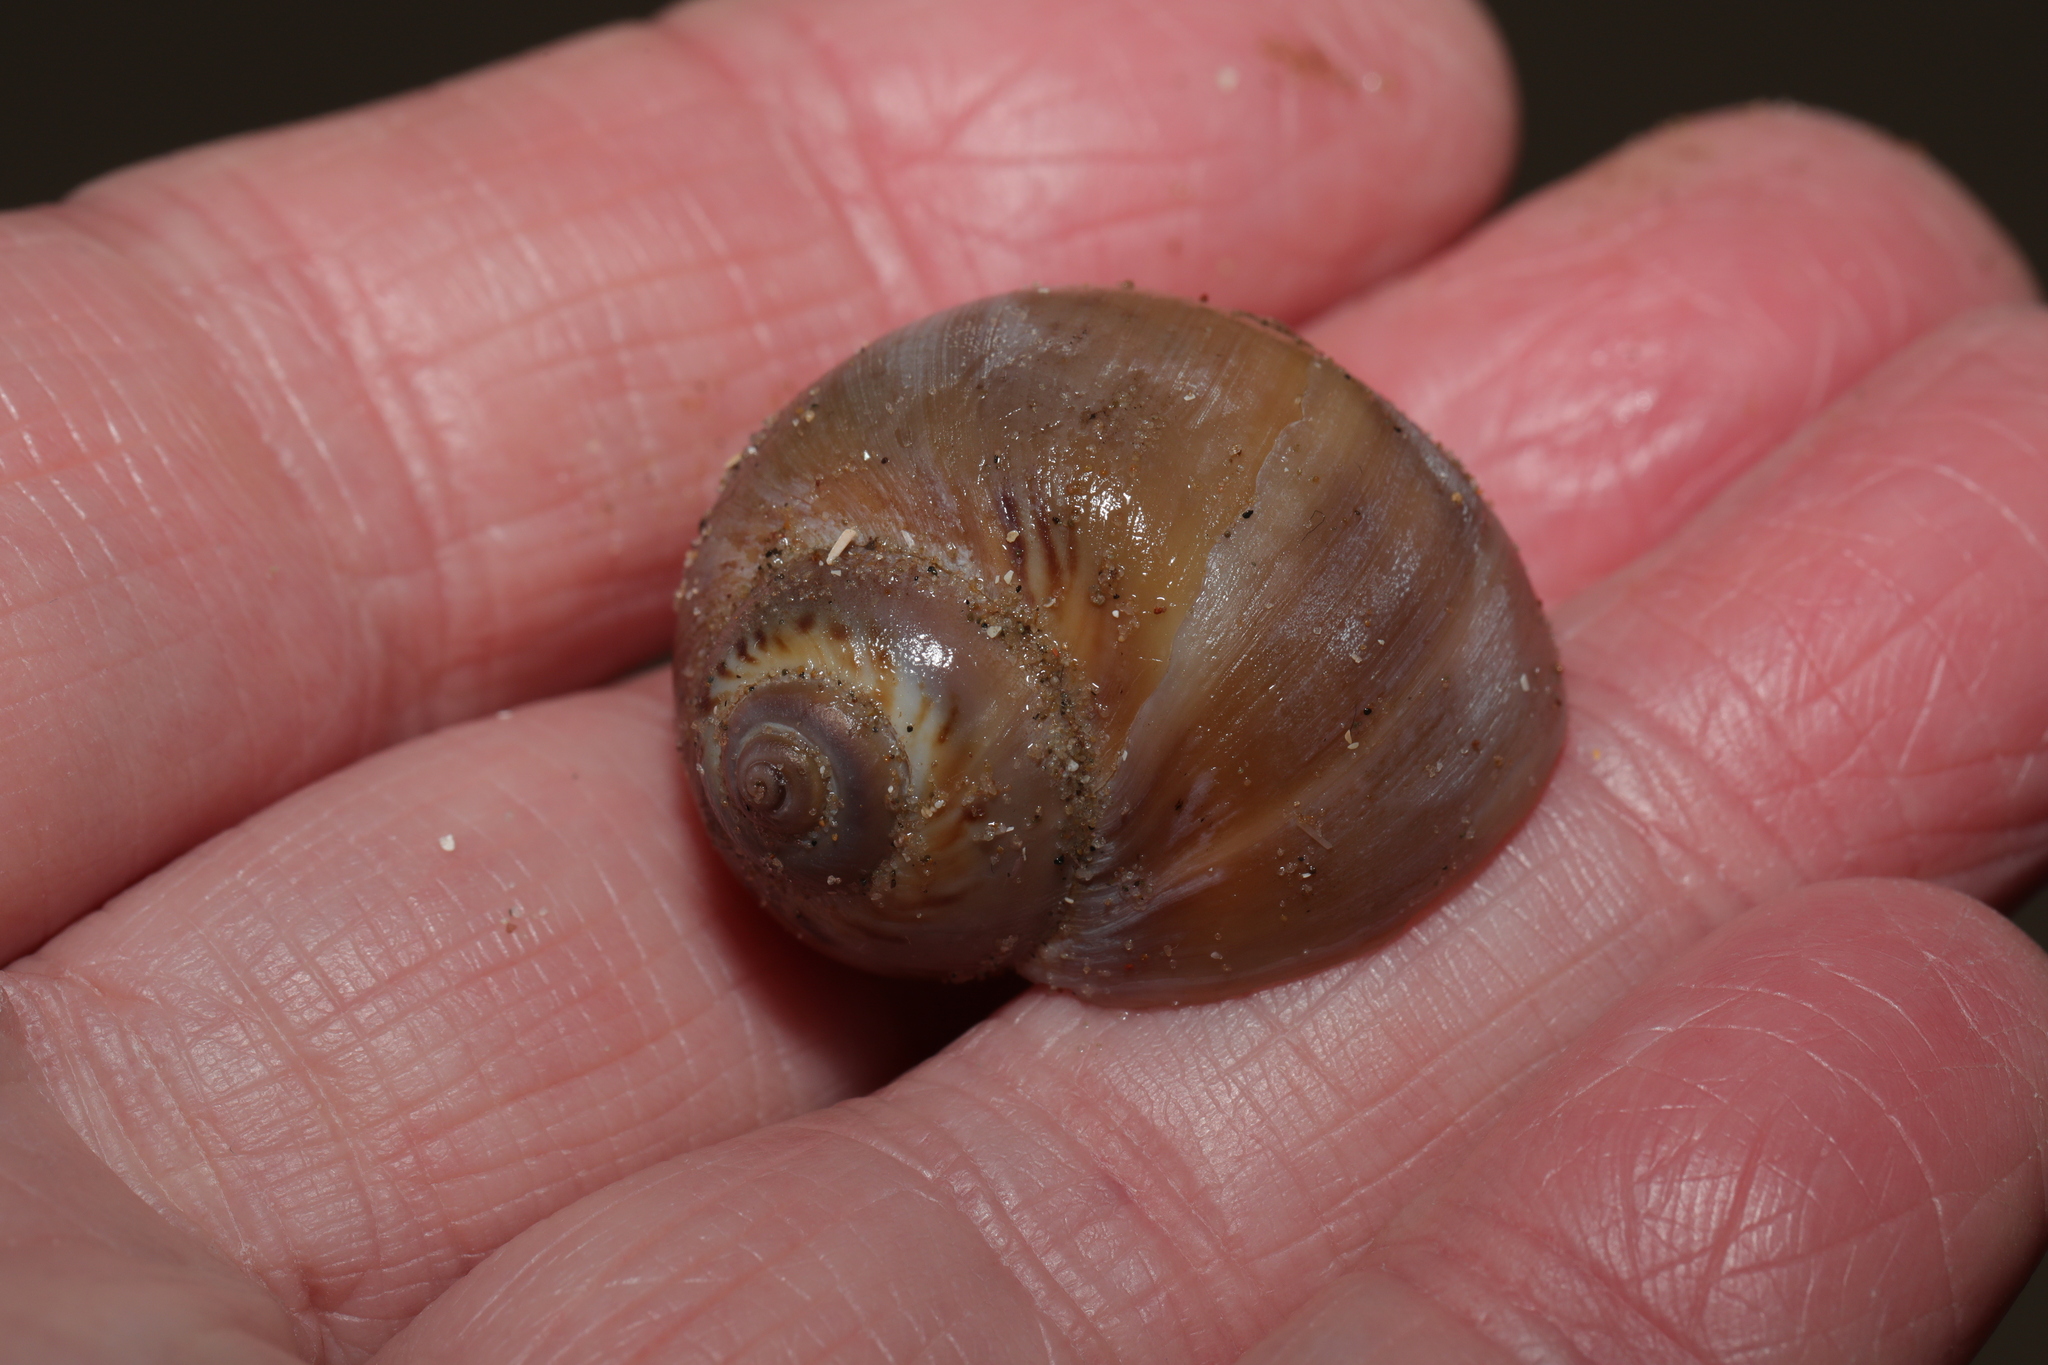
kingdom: Animalia
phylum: Mollusca
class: Gastropoda
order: Littorinimorpha
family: Naticidae
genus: Euspira
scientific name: Euspira catena
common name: Necklace shell
